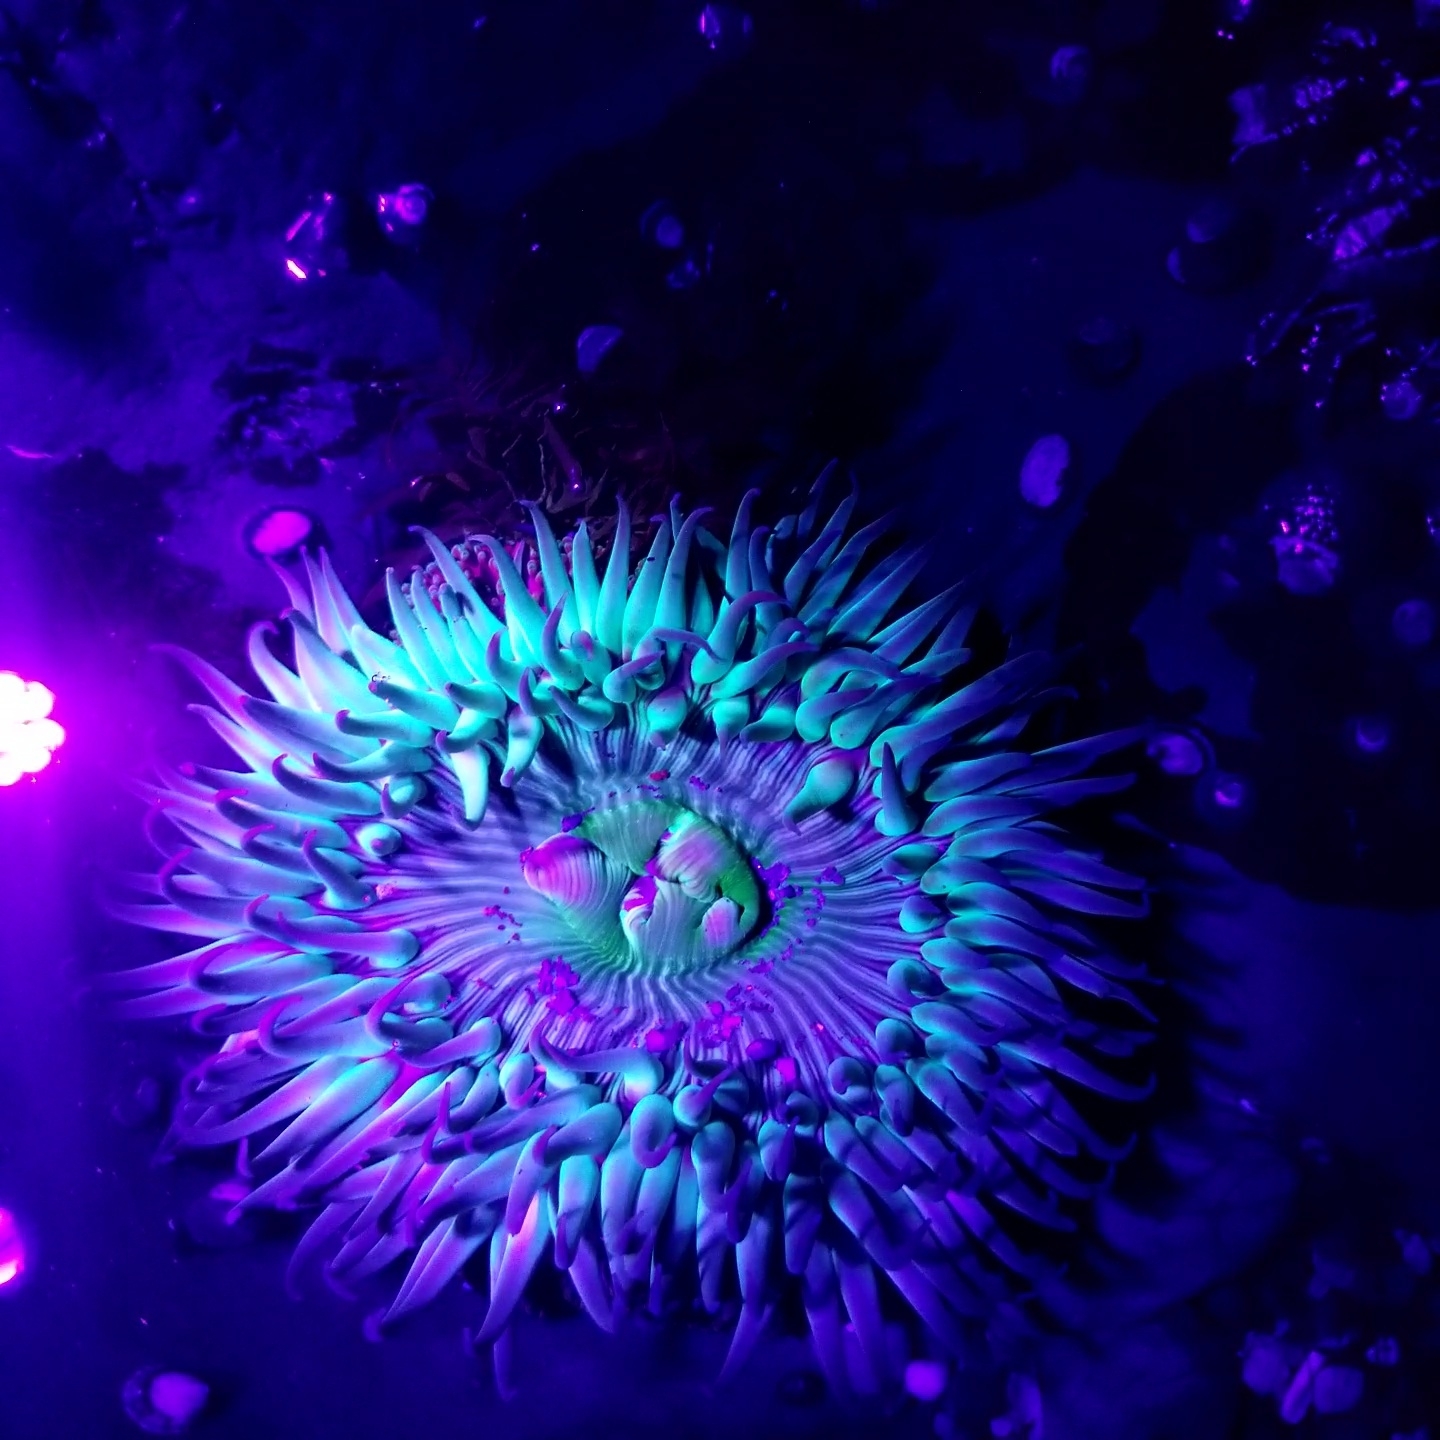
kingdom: Animalia
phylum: Cnidaria
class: Anthozoa
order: Actiniaria
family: Actiniidae
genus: Anthopleura
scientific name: Anthopleura sola
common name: Sun anemone
